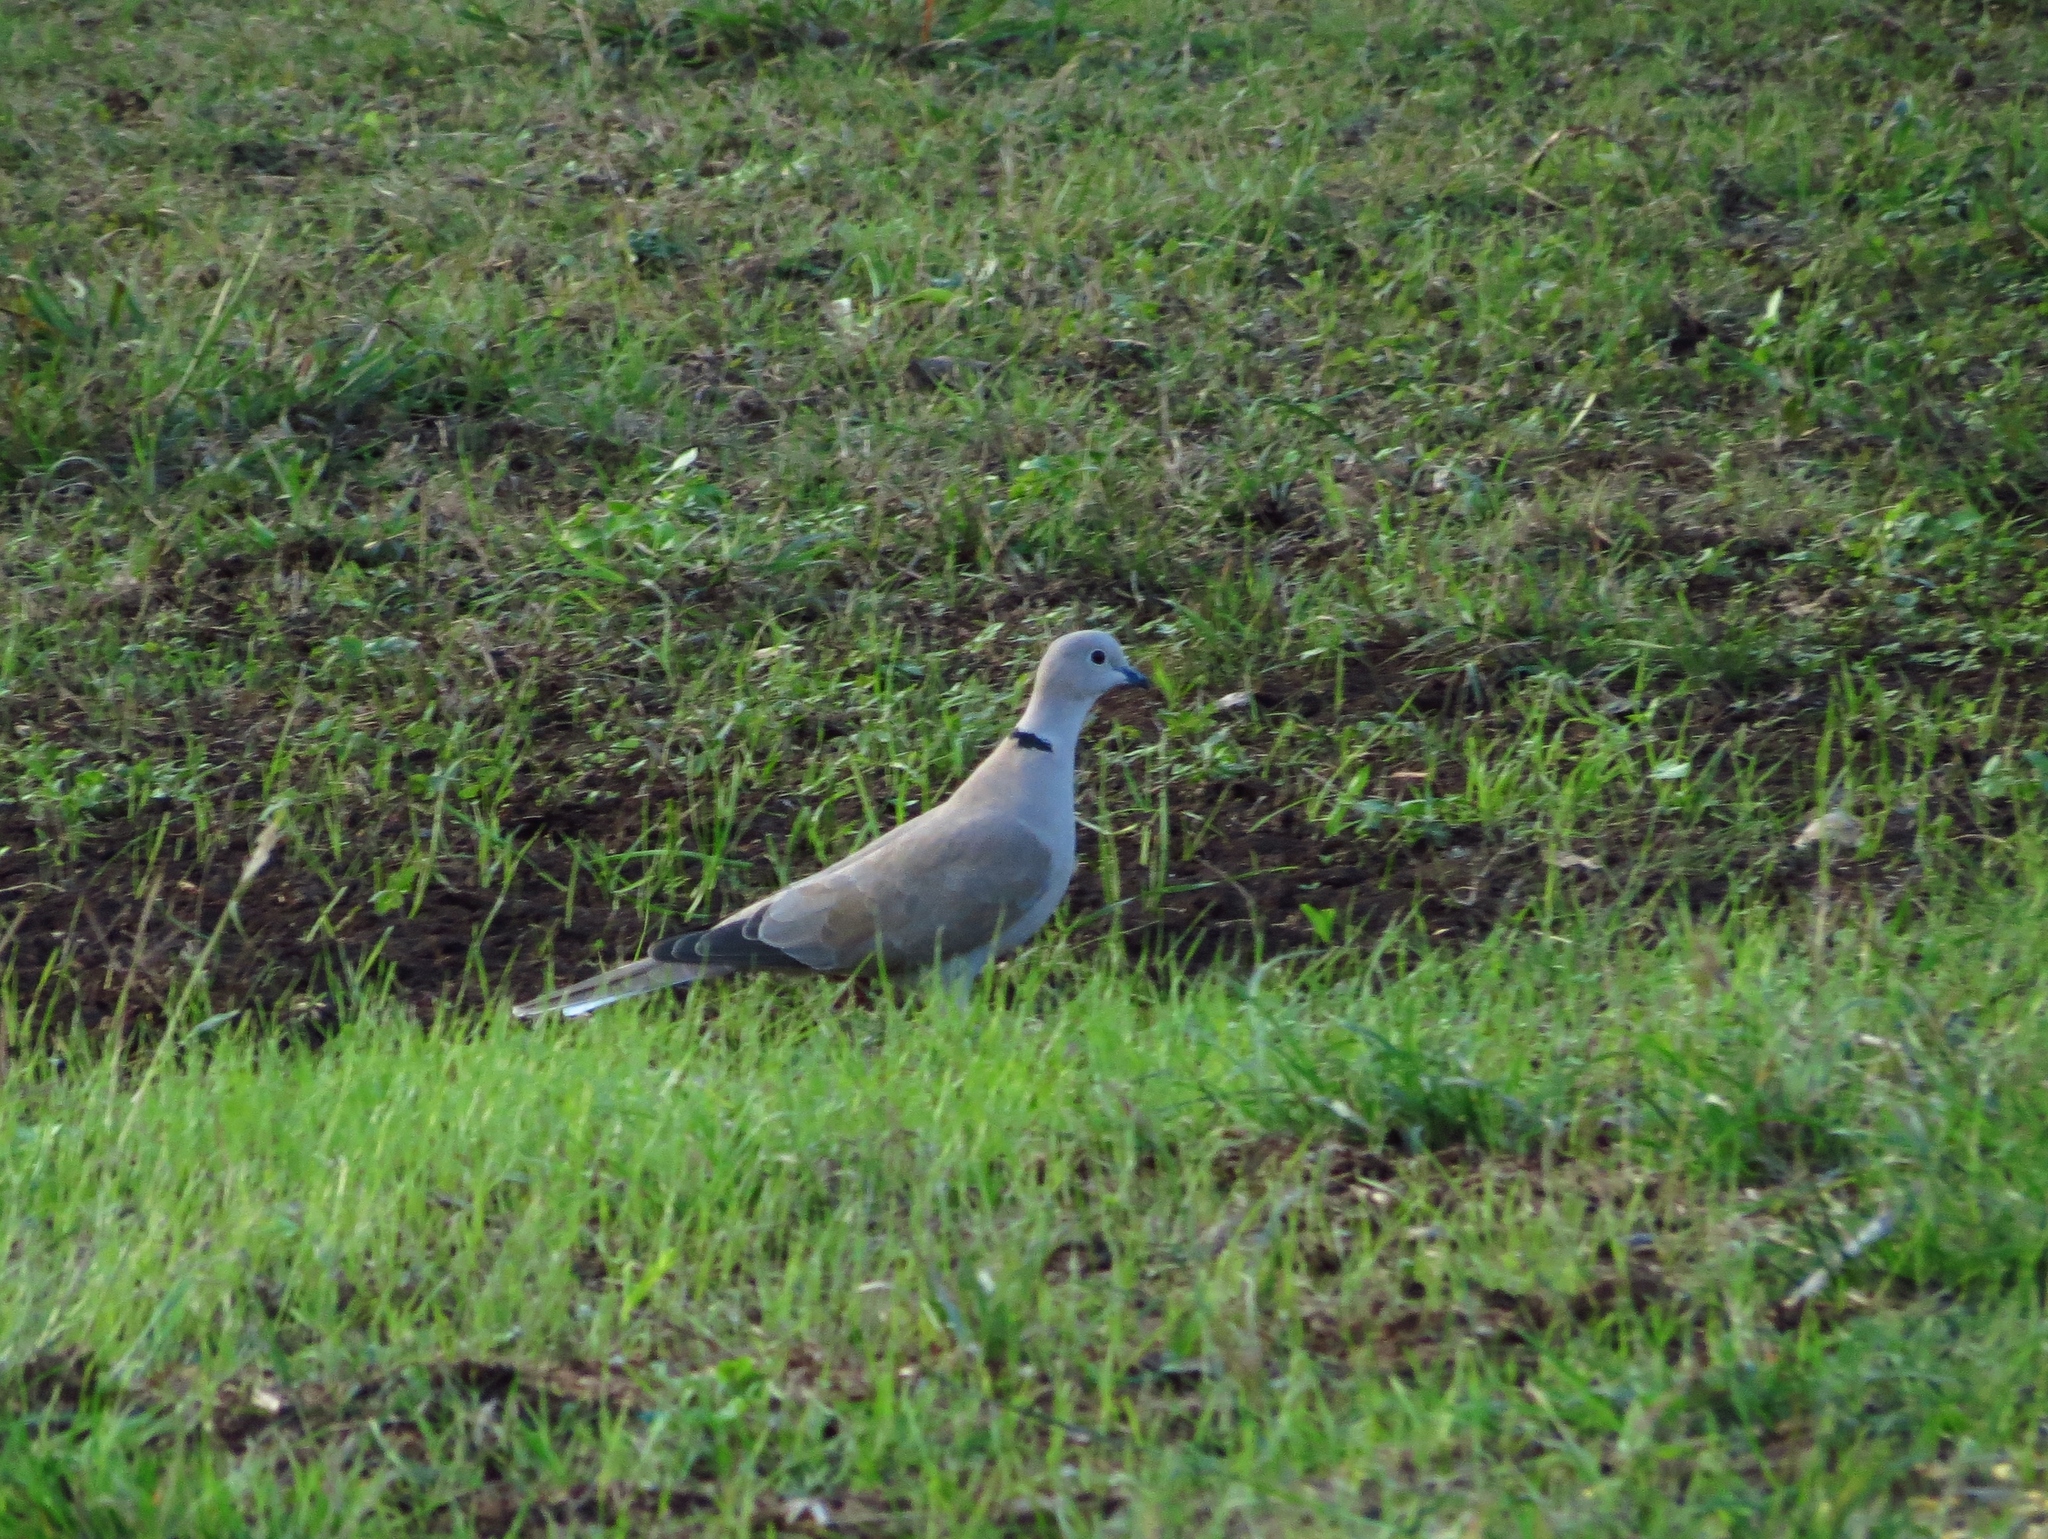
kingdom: Animalia
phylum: Chordata
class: Aves
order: Columbiformes
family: Columbidae
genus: Streptopelia
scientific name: Streptopelia decaocto
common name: Eurasian collared dove
